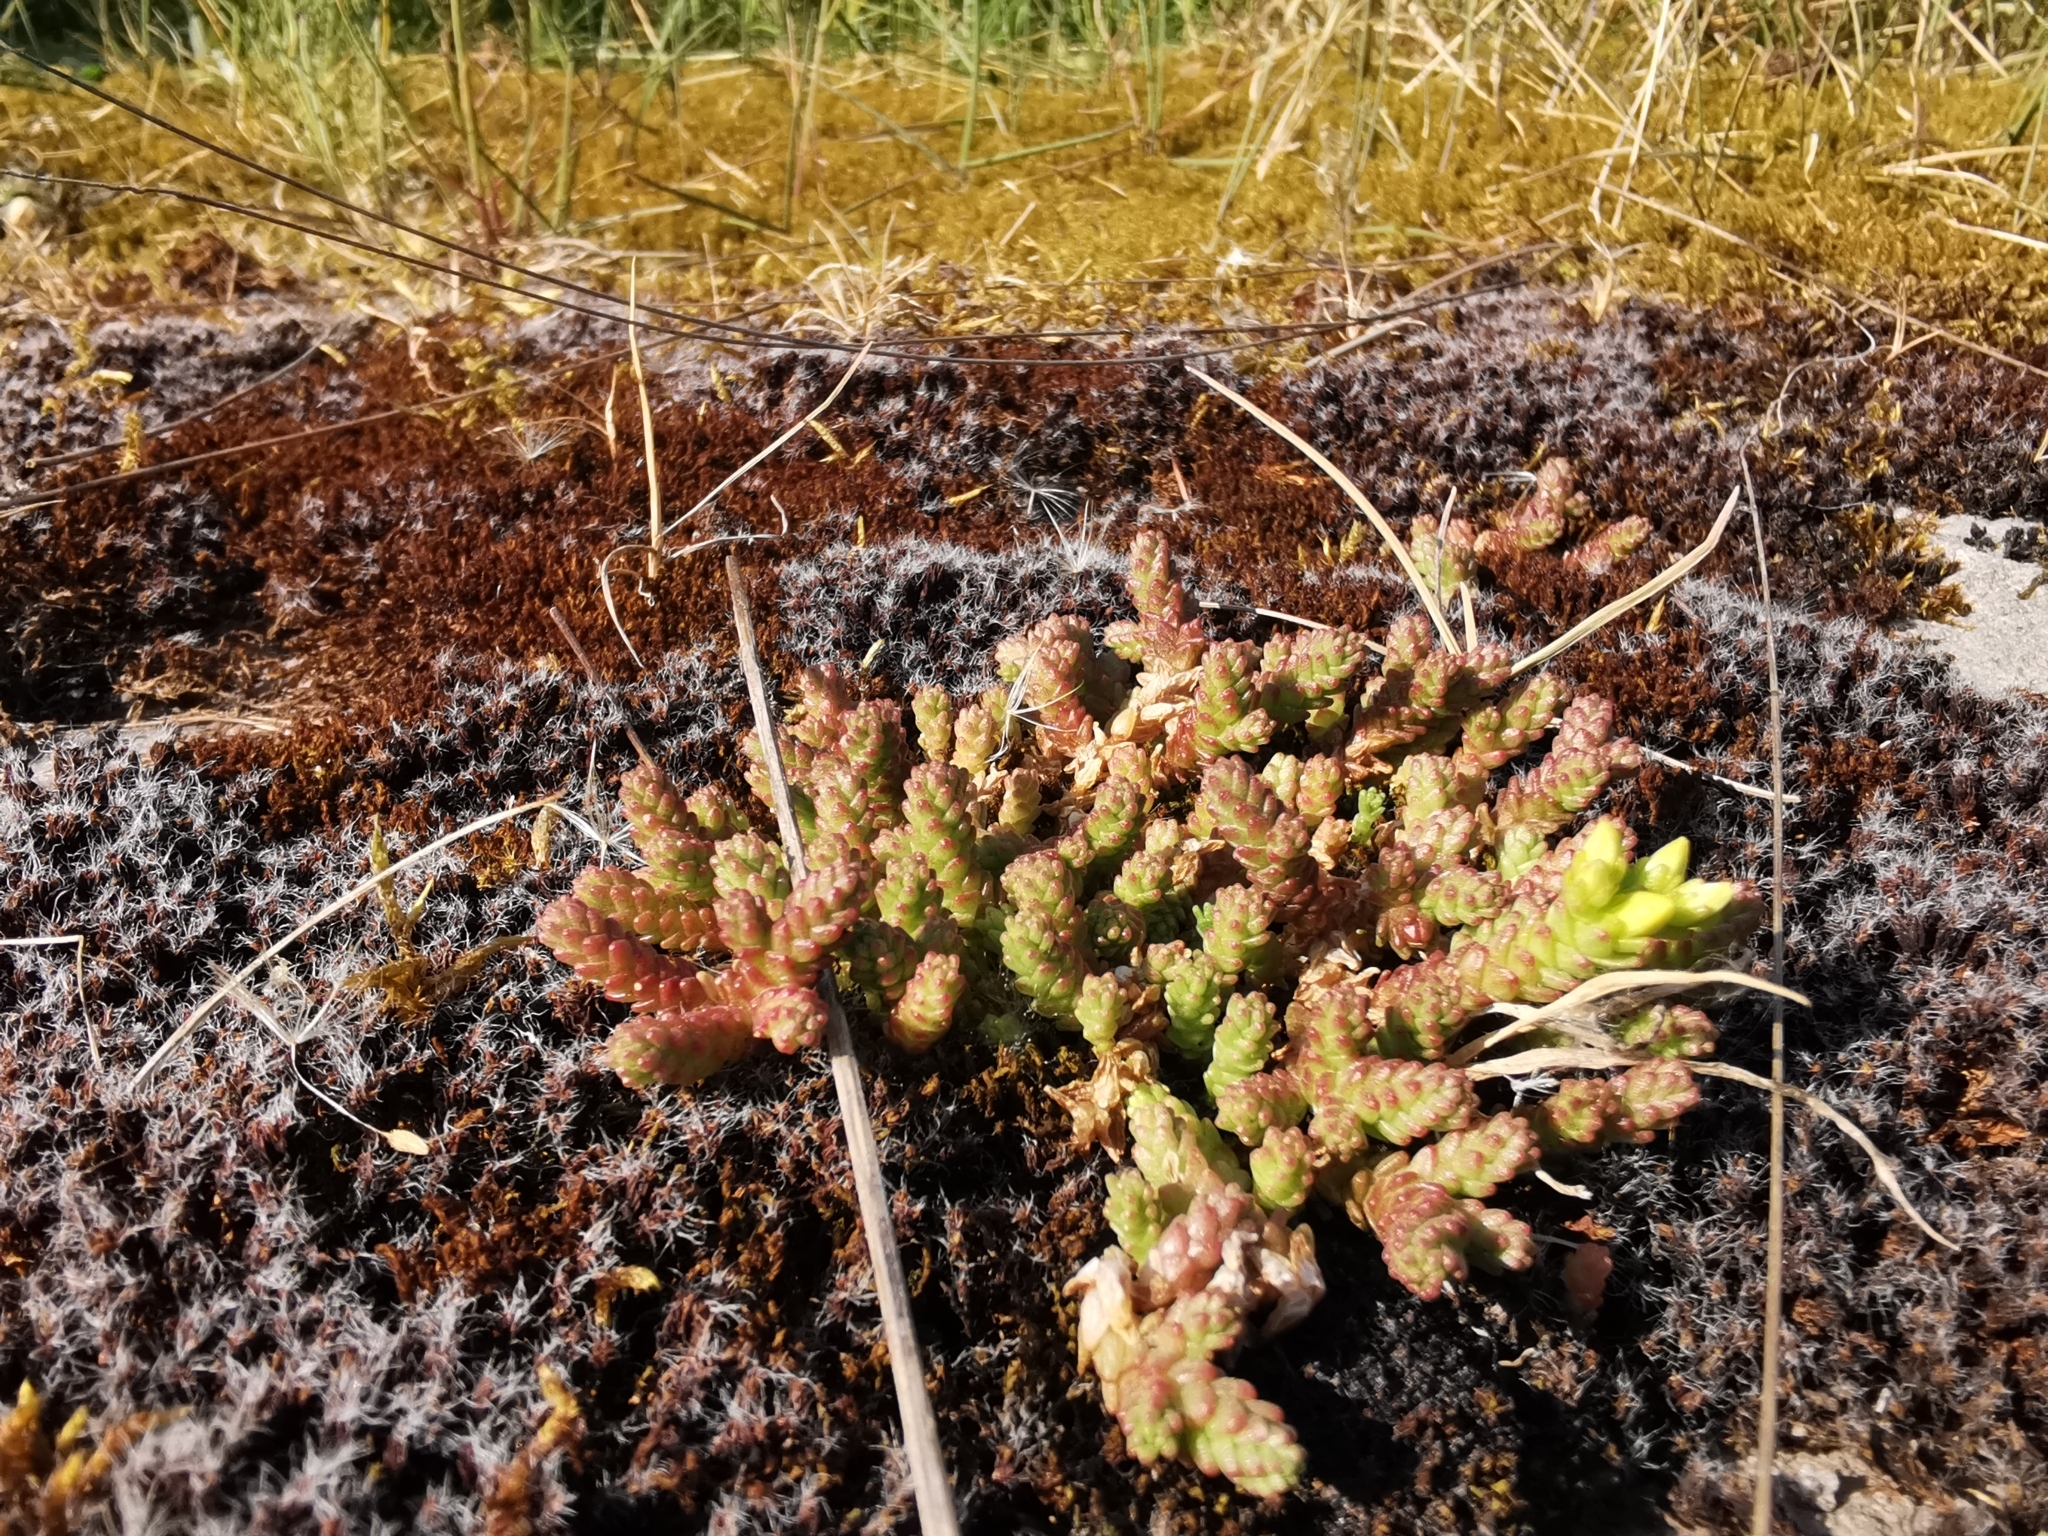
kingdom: Plantae
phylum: Tracheophyta
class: Magnoliopsida
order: Saxifragales
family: Crassulaceae
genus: Sedum
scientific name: Sedum acre
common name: Biting stonecrop
